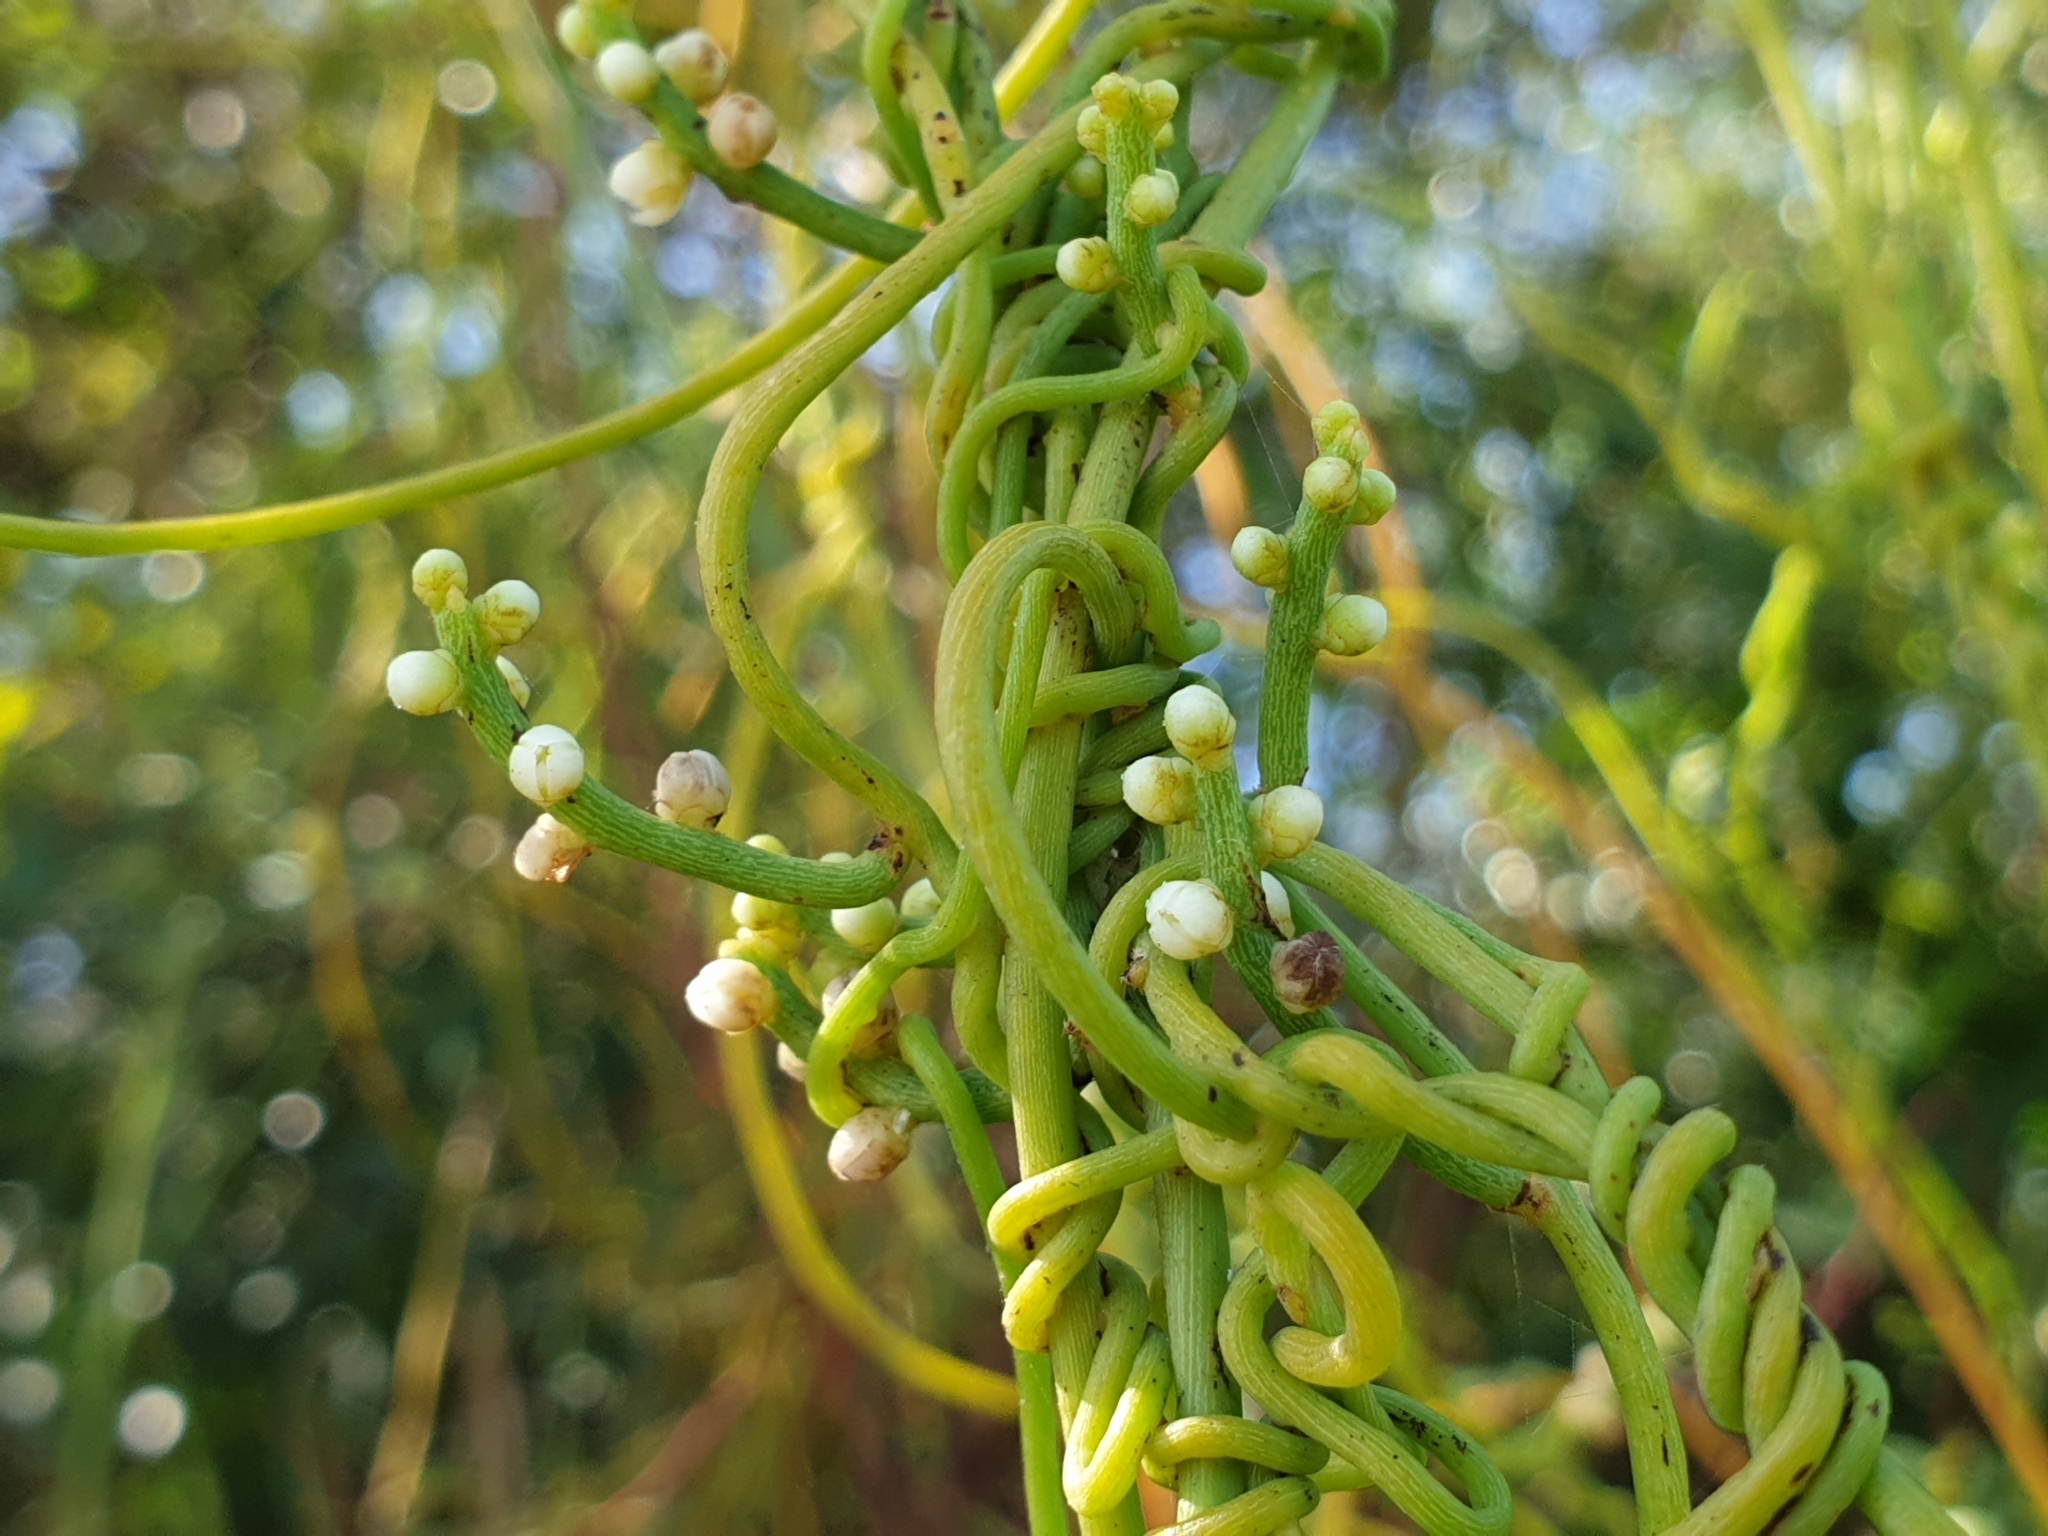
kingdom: Plantae
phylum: Tracheophyta
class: Magnoliopsida
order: Laurales
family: Lauraceae
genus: Cassytha
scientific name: Cassytha filiformis
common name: Dodder-laurel
